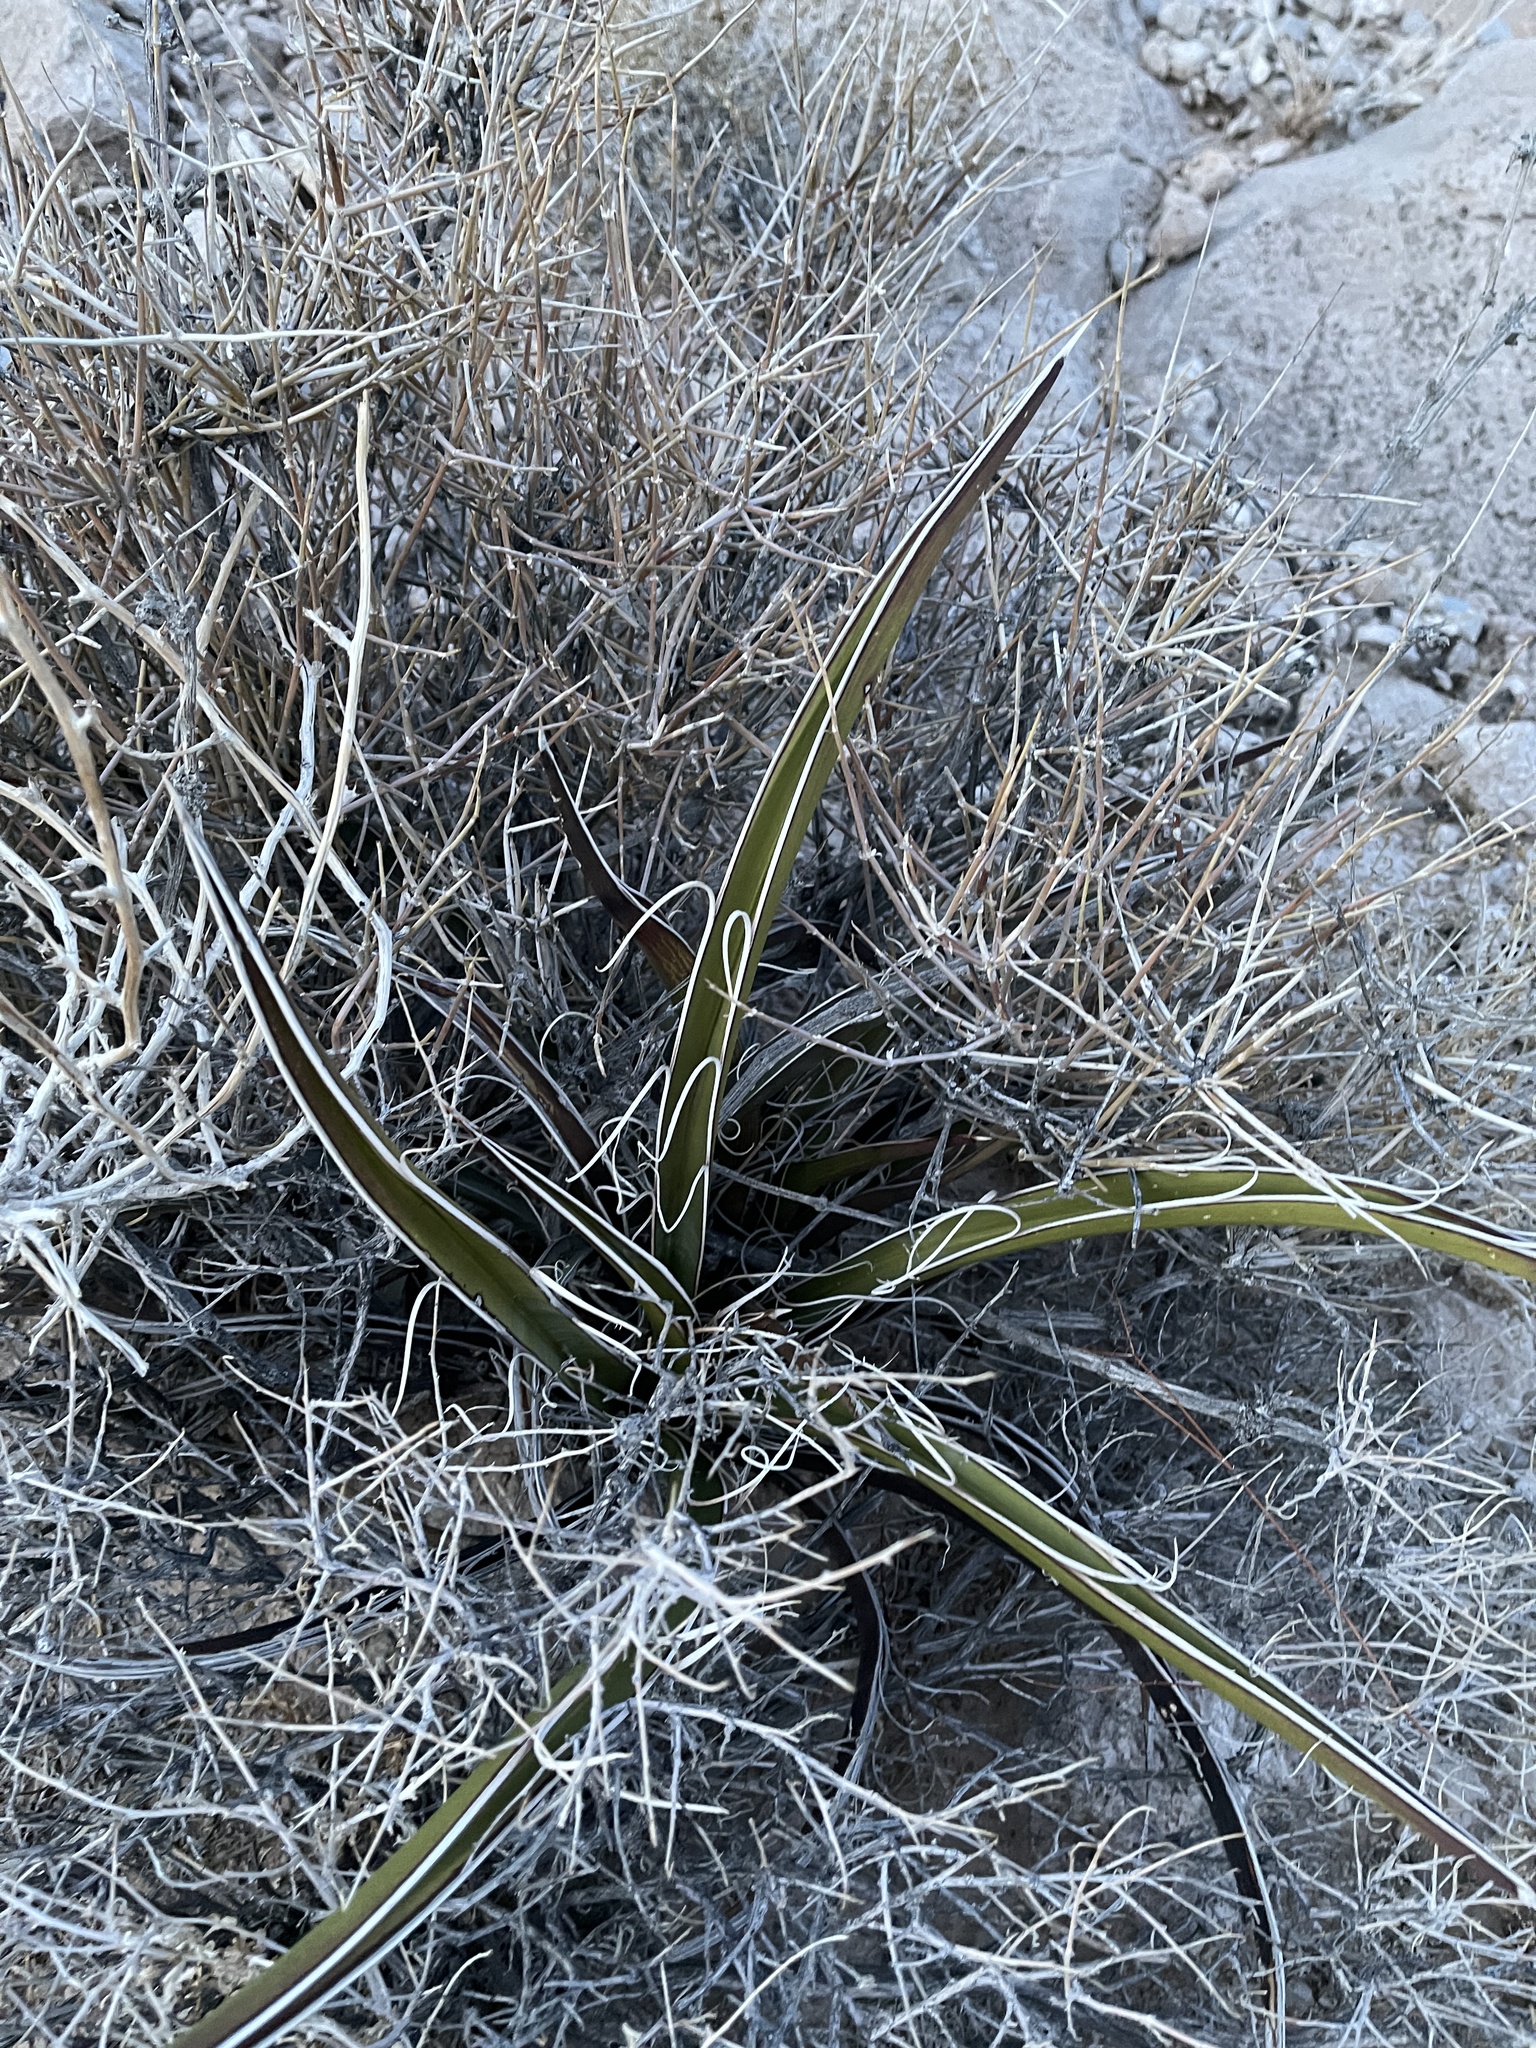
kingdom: Plantae
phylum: Tracheophyta
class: Liliopsida
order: Asparagales
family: Asparagaceae
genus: Yucca
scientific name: Yucca baccata
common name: Banana yucca
